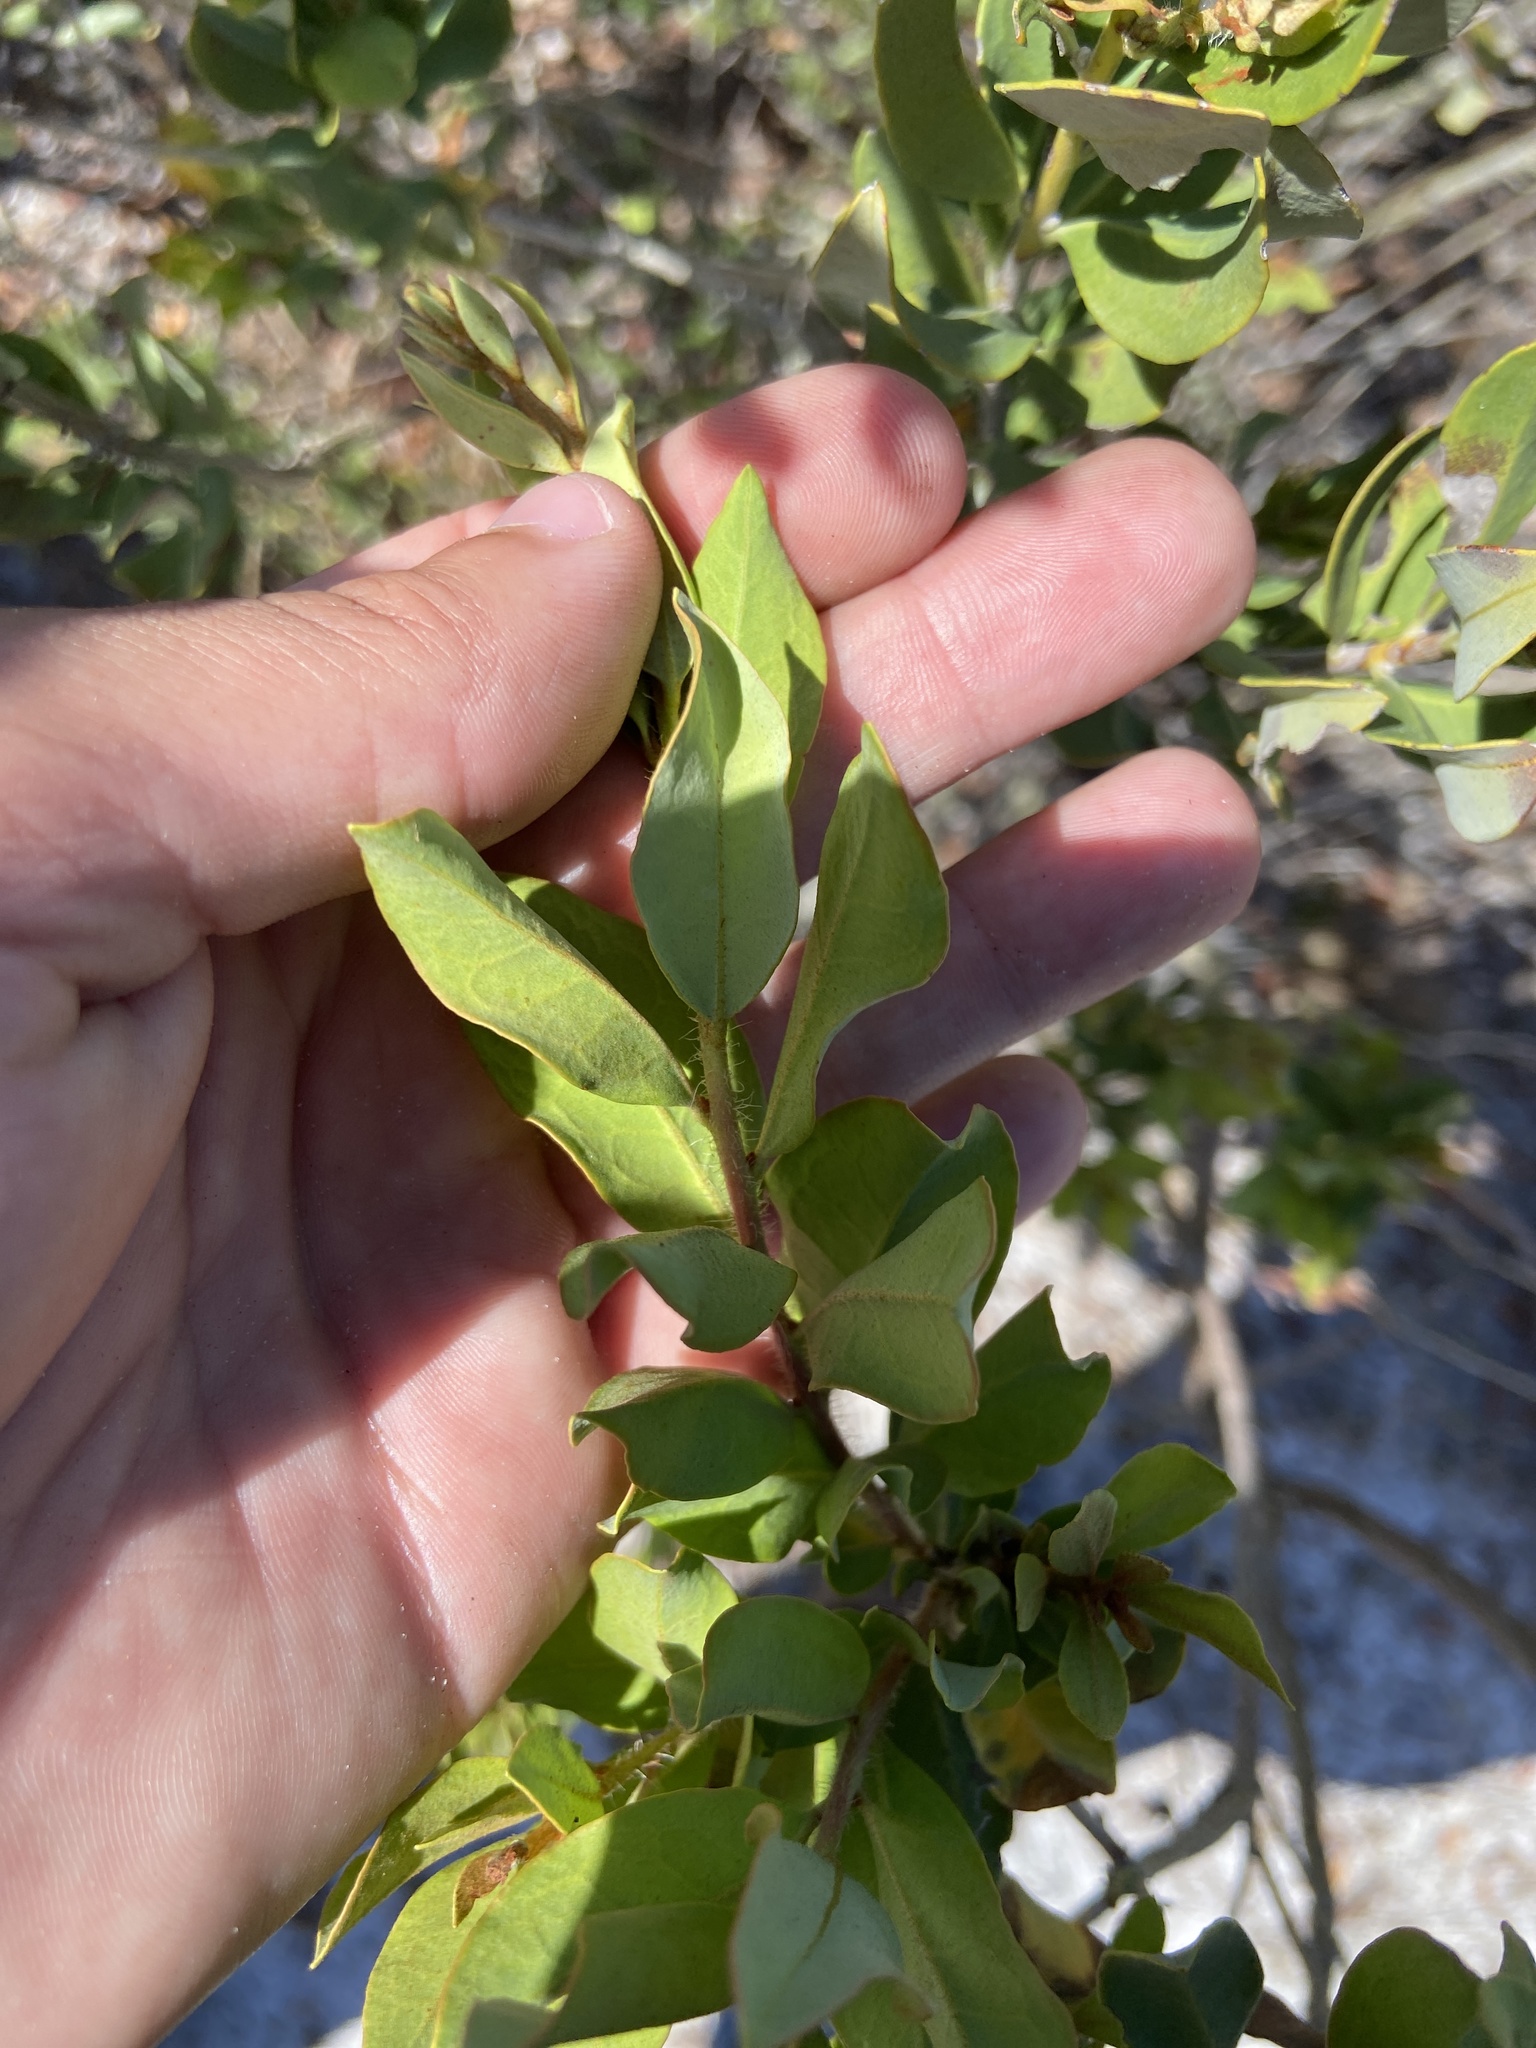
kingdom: Plantae
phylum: Tracheophyta
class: Magnoliopsida
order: Ericales
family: Ericaceae
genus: Bejaria
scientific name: Bejaria racemosa
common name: Tarflower
